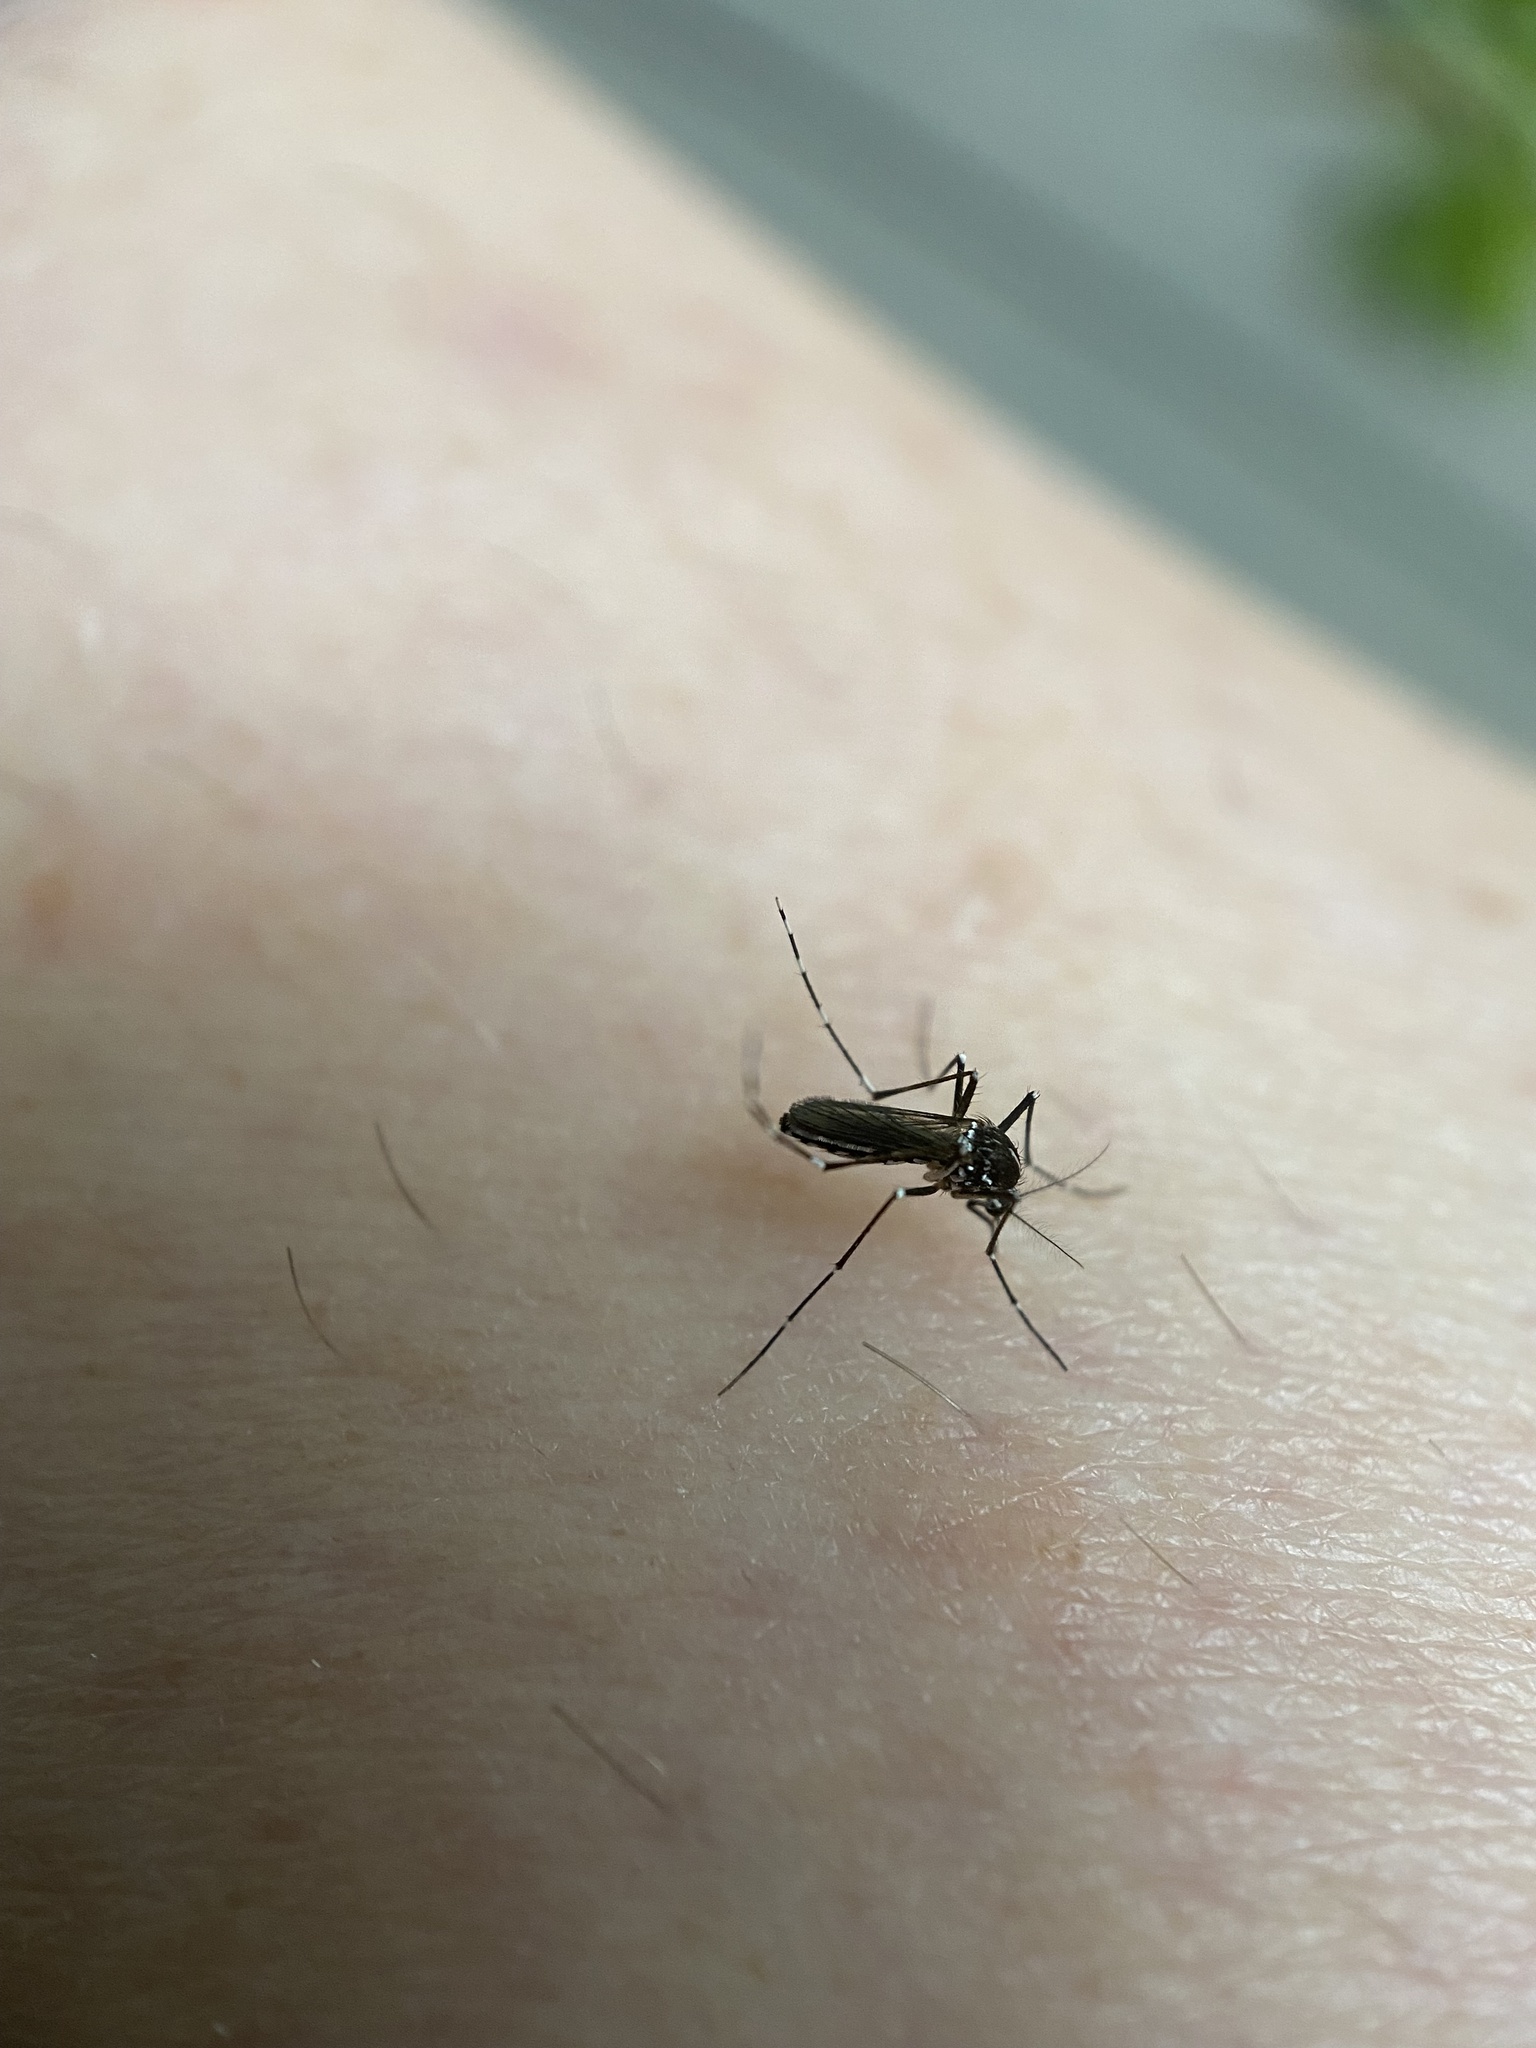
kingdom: Animalia
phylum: Arthropoda
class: Insecta
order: Diptera
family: Culicidae
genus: Aedes
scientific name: Aedes albopictus
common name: Tiger mosquito
